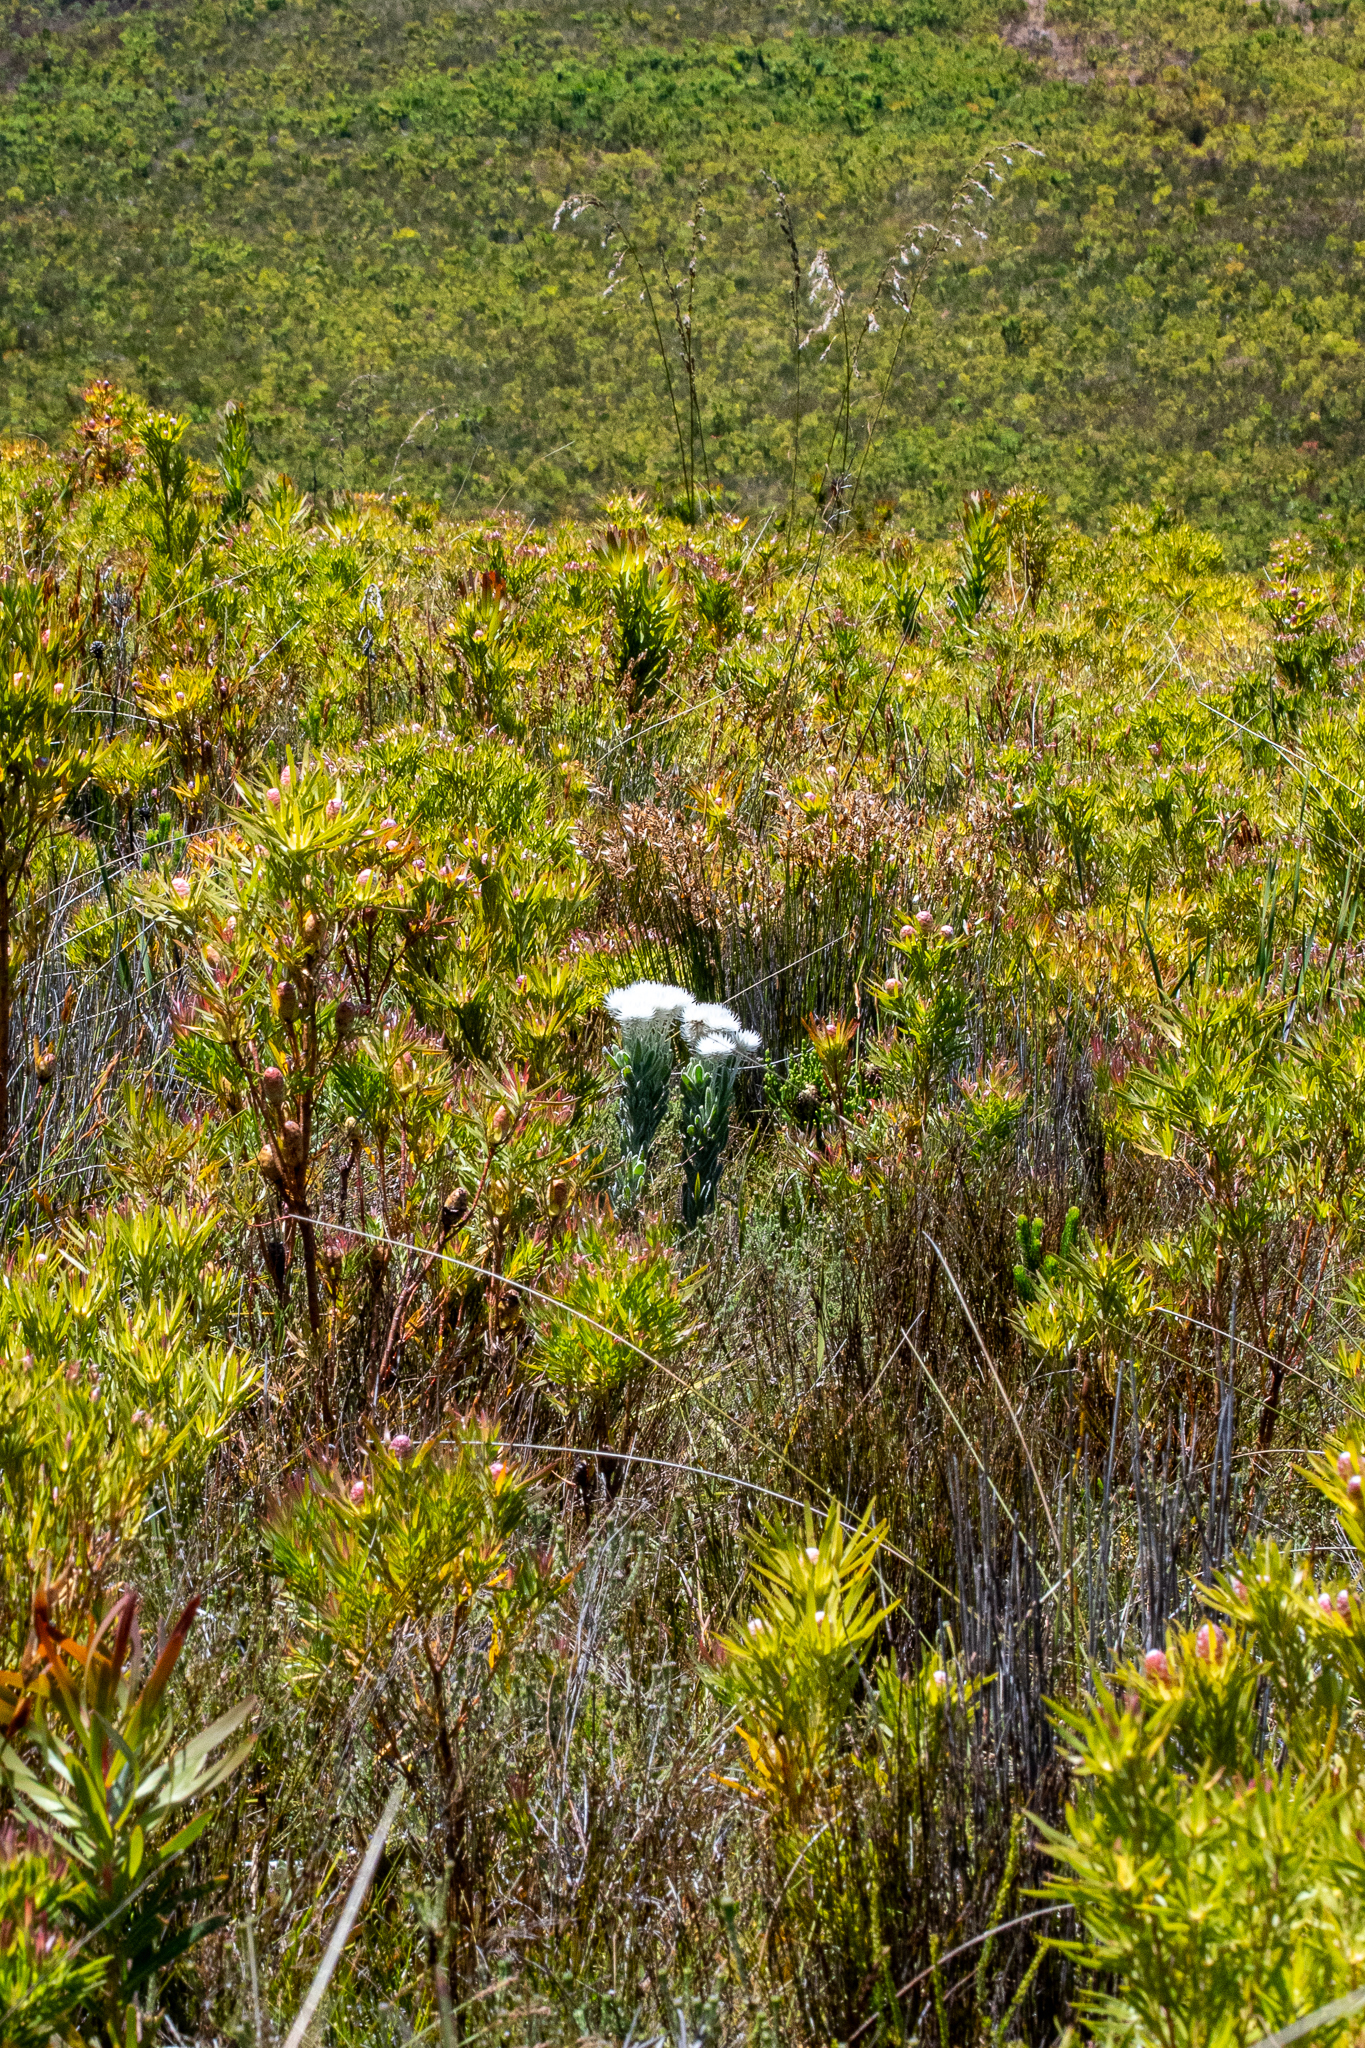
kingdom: Plantae
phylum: Tracheophyta
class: Magnoliopsida
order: Asterales
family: Asteraceae
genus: Syncarpha
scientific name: Syncarpha vestita
